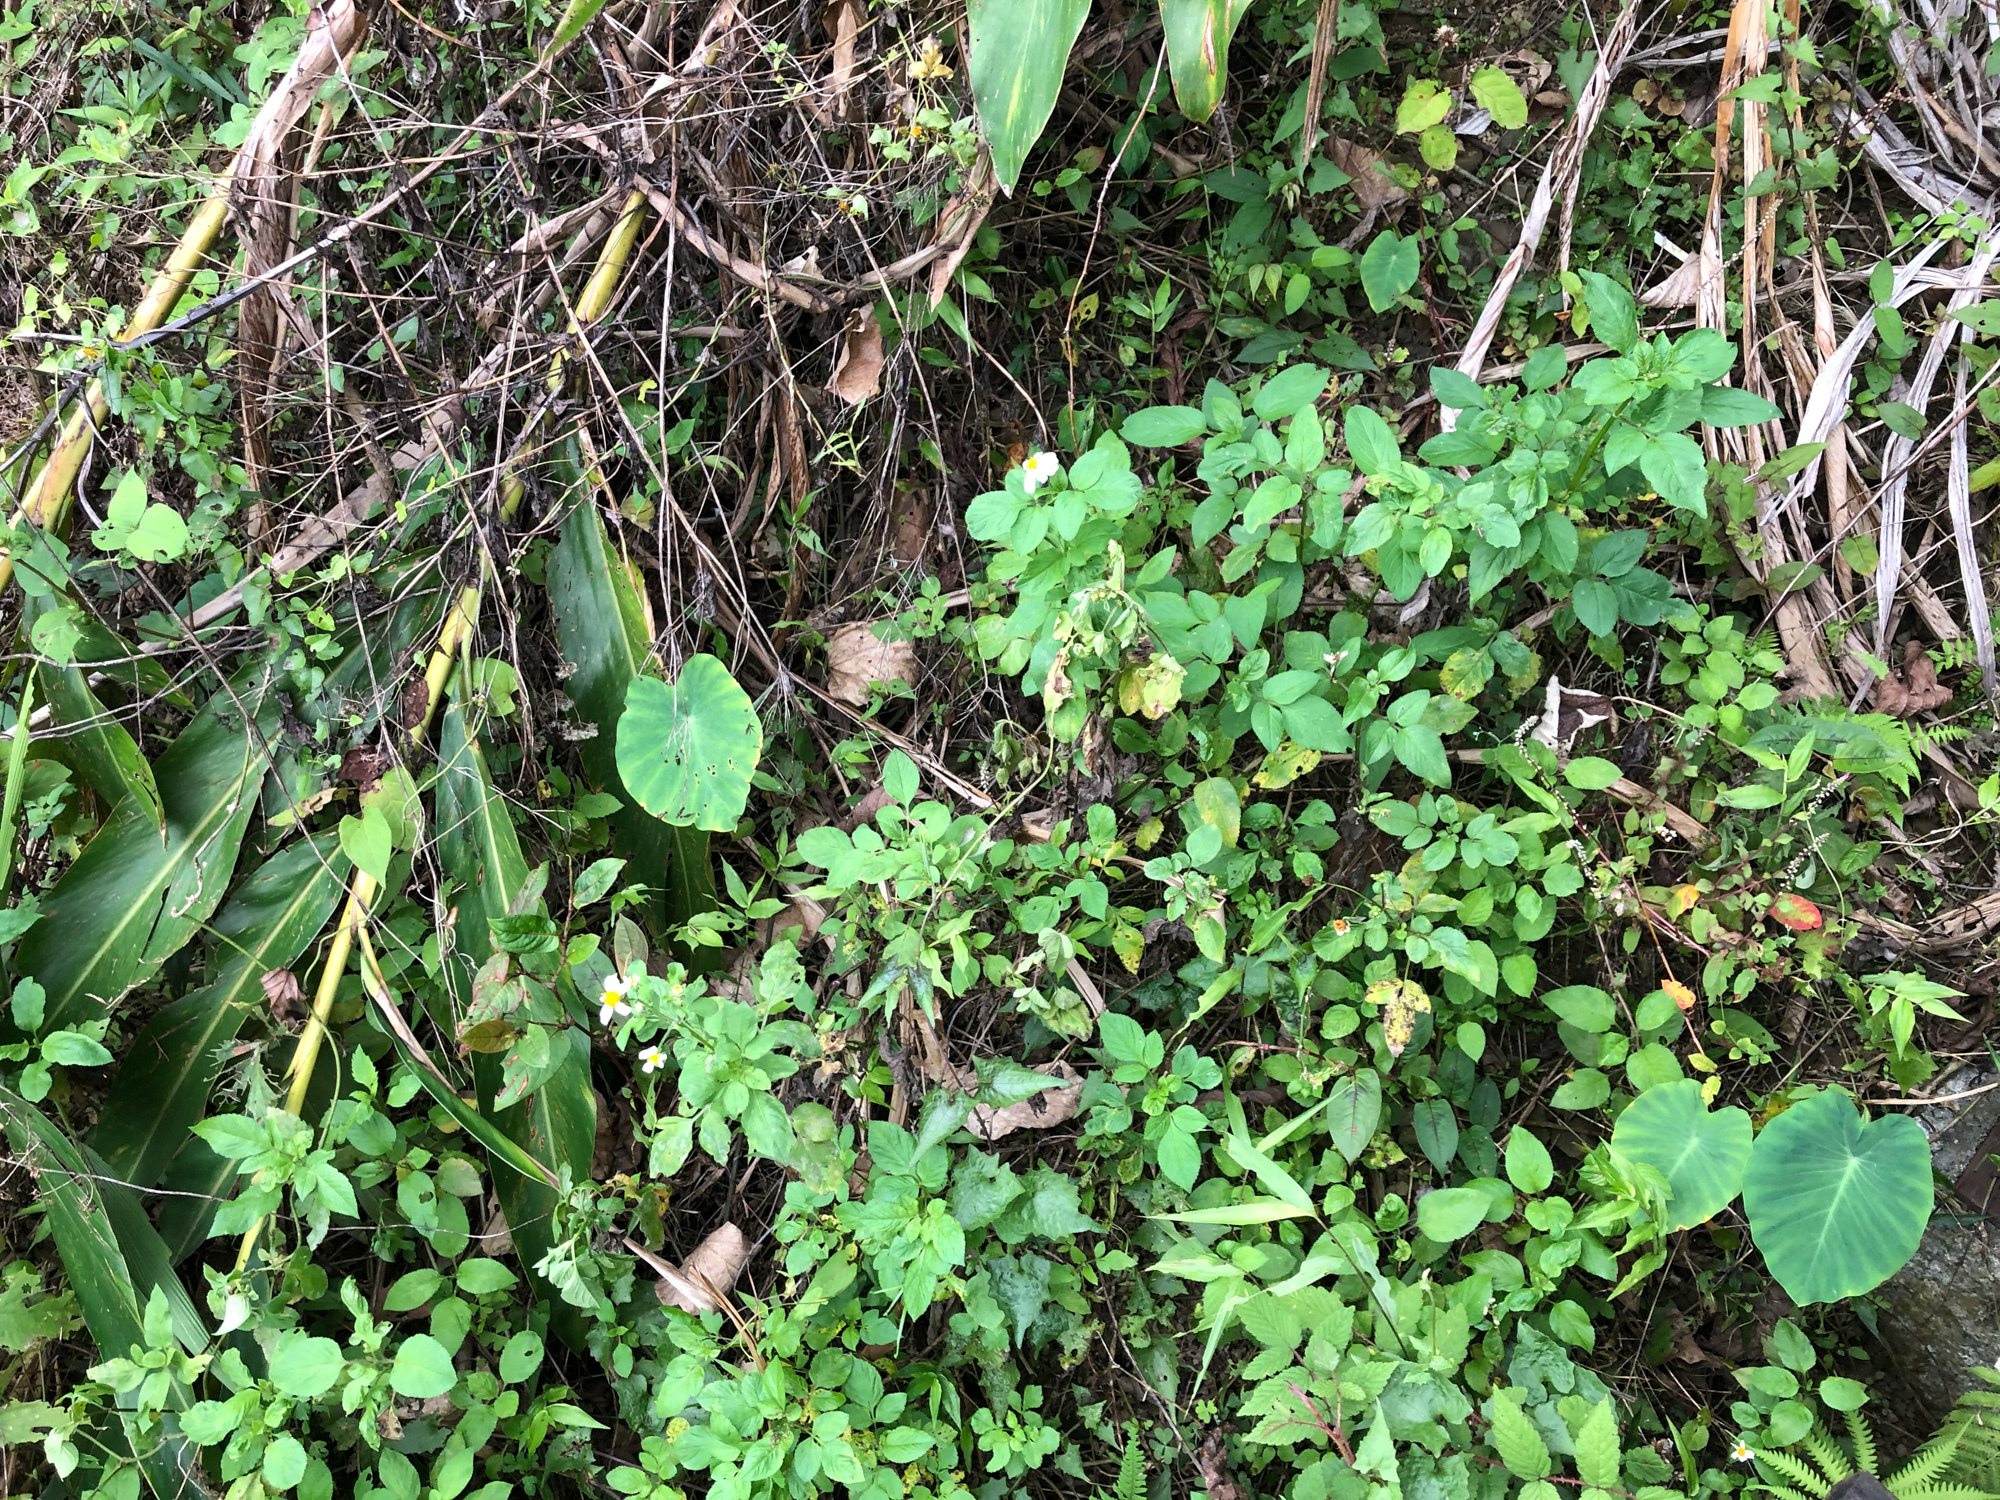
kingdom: Plantae
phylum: Tracheophyta
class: Magnoliopsida
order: Asterales
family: Asteraceae
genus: Bidens
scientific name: Bidens alba
